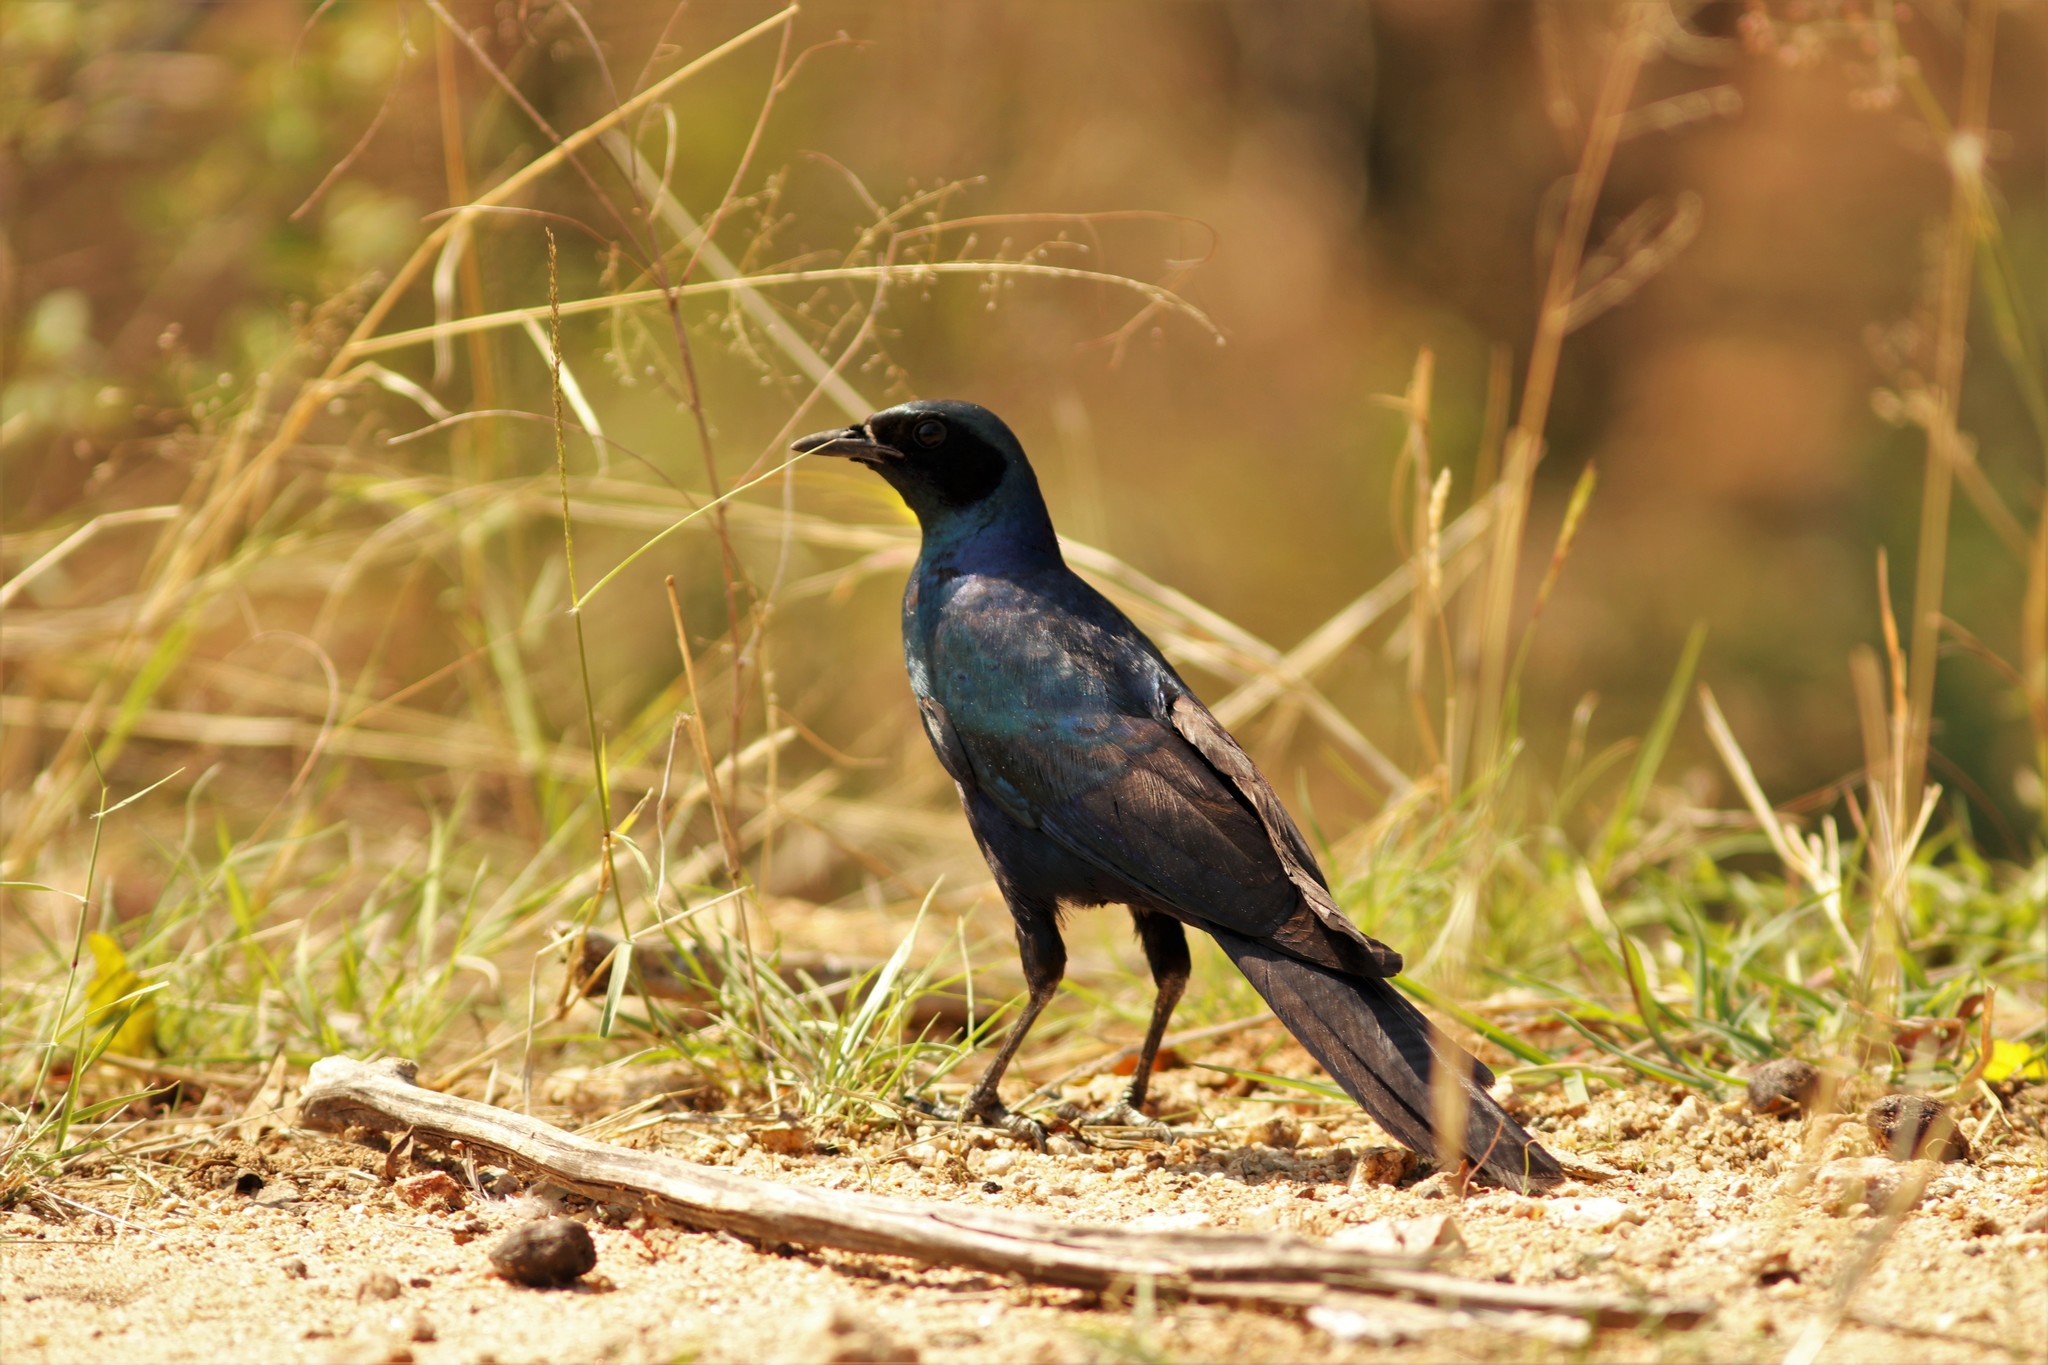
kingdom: Animalia
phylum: Chordata
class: Aves
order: Passeriformes
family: Sturnidae
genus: Lamprotornis
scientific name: Lamprotornis australis
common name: Burchell's starling
